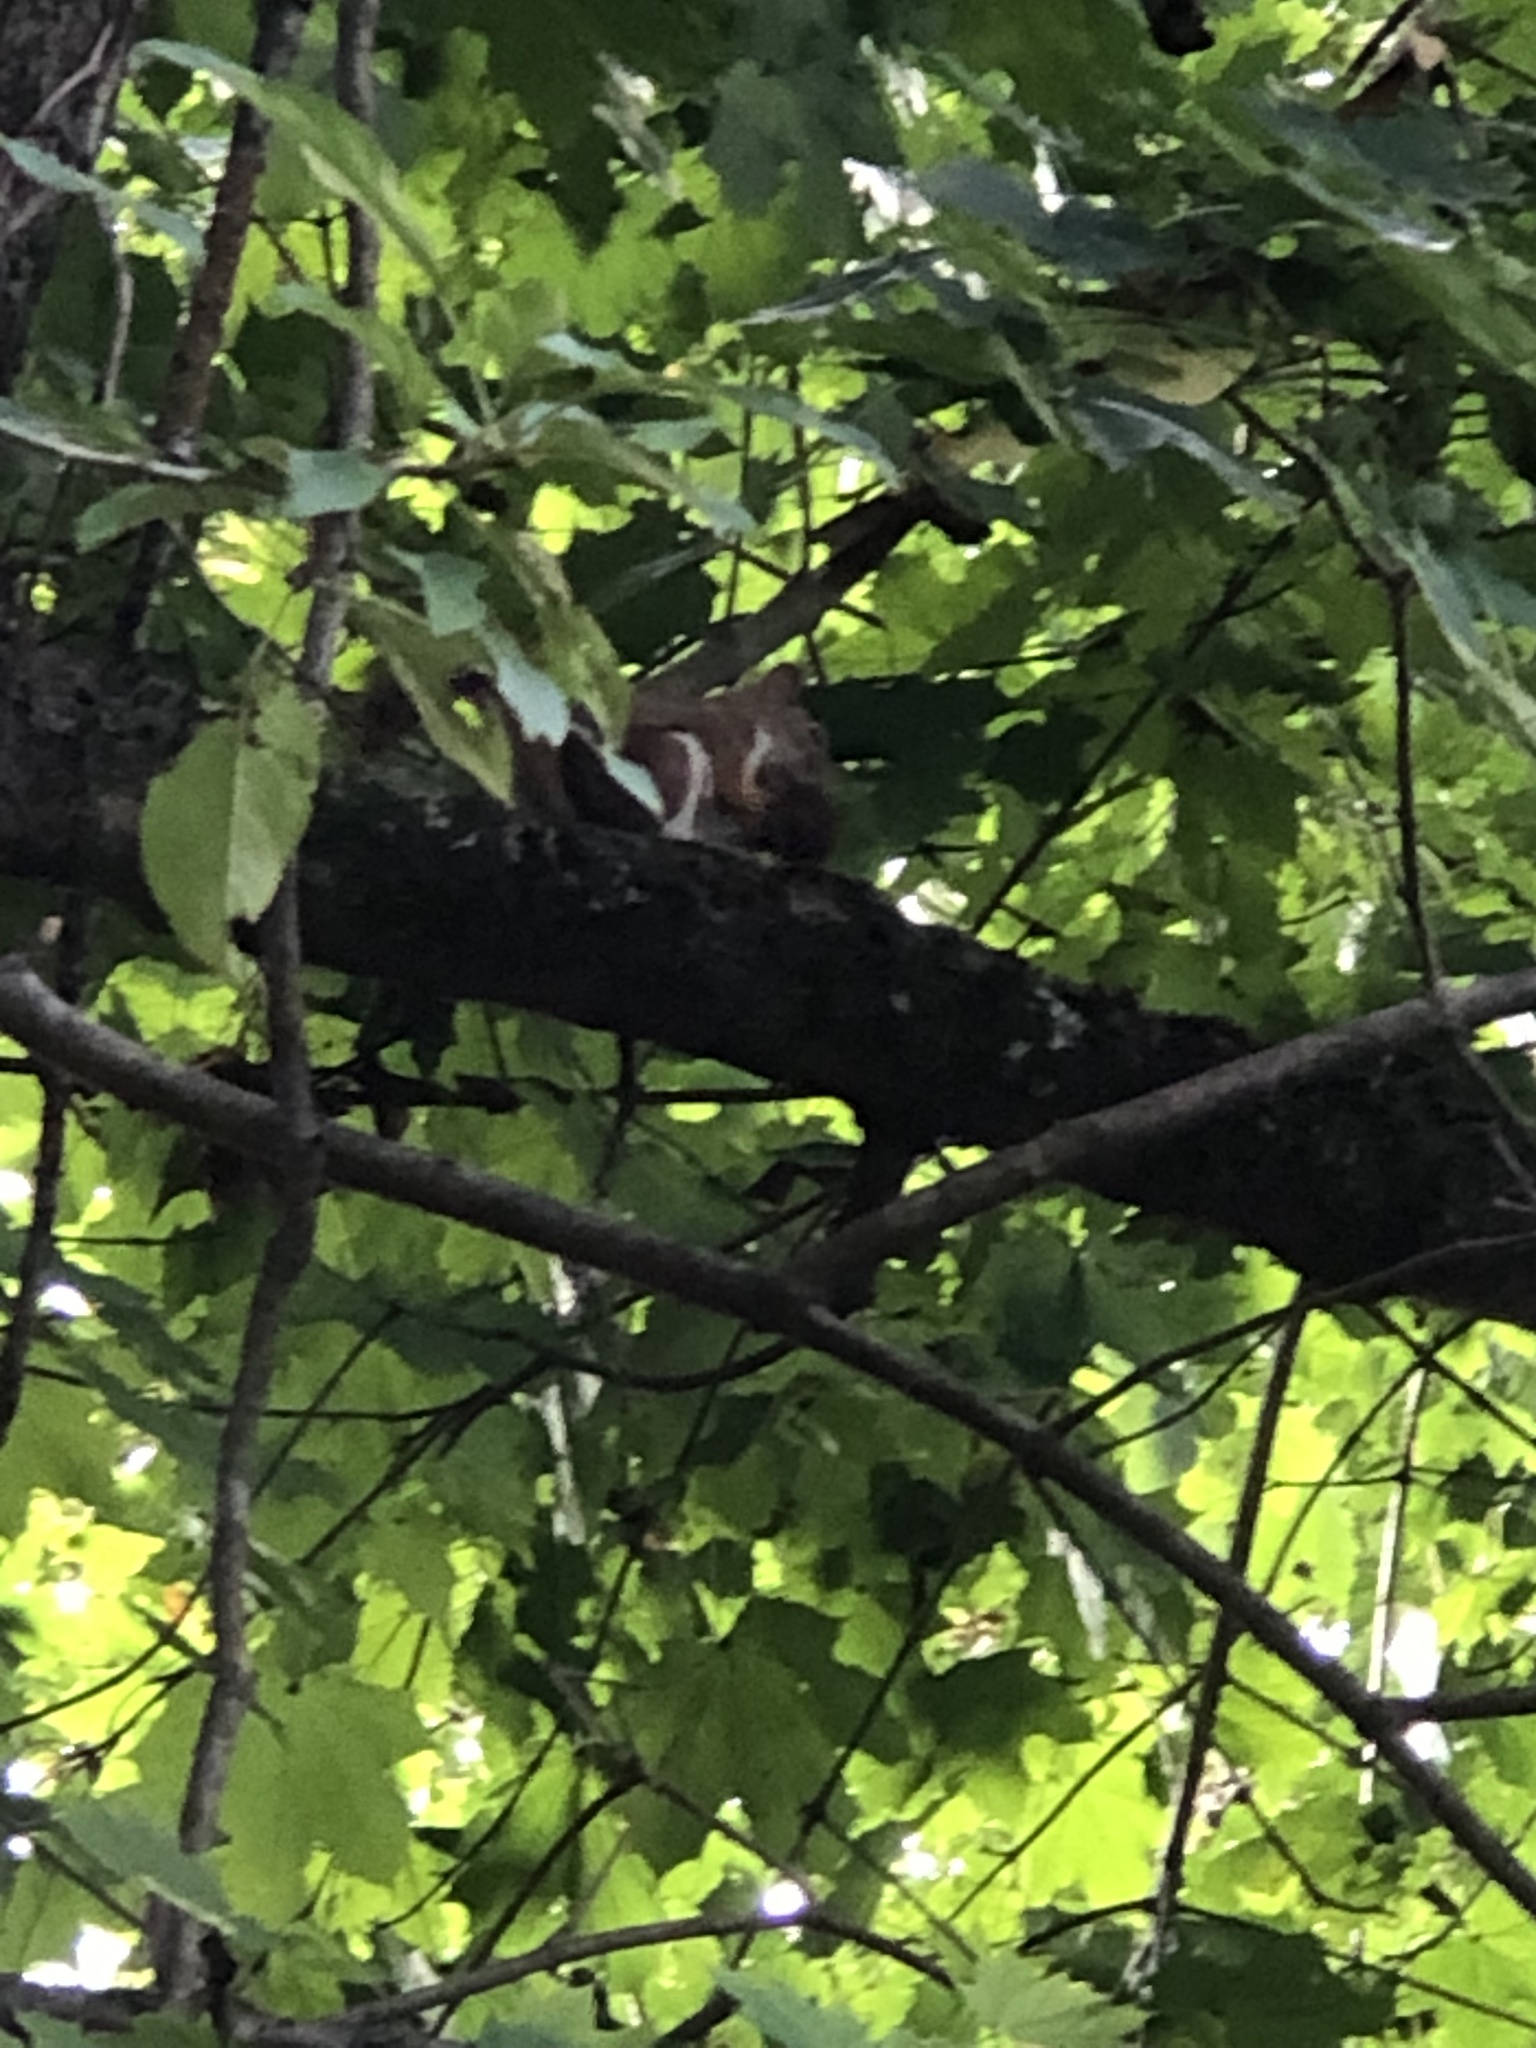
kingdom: Animalia
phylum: Chordata
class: Mammalia
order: Rodentia
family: Sciuridae
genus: Tamiasciurus
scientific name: Tamiasciurus hudsonicus
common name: Red squirrel
